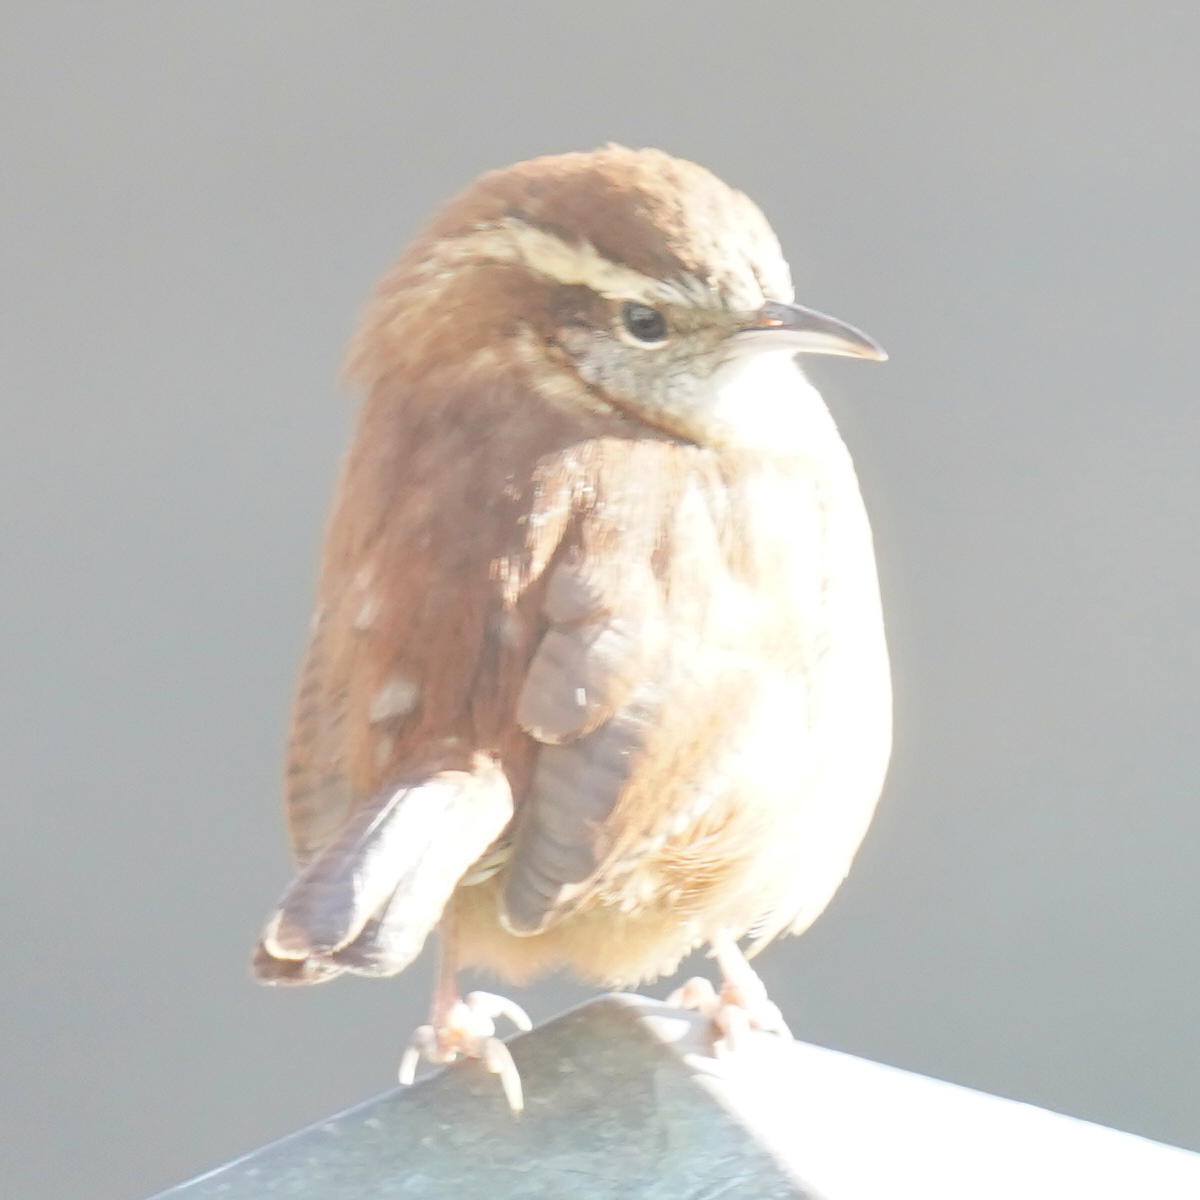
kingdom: Animalia
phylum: Chordata
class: Aves
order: Passeriformes
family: Troglodytidae
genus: Thryothorus
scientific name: Thryothorus ludovicianus
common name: Carolina wren
